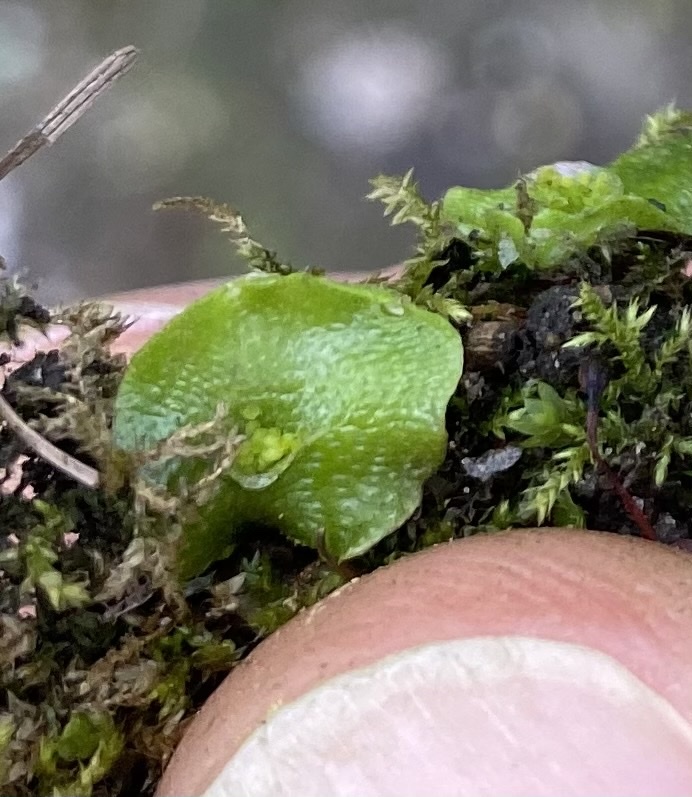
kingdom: Plantae
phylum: Marchantiophyta
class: Marchantiopsida
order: Lunulariales
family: Lunulariaceae
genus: Lunularia
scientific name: Lunularia cruciata
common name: Crescent-cup liverwort
